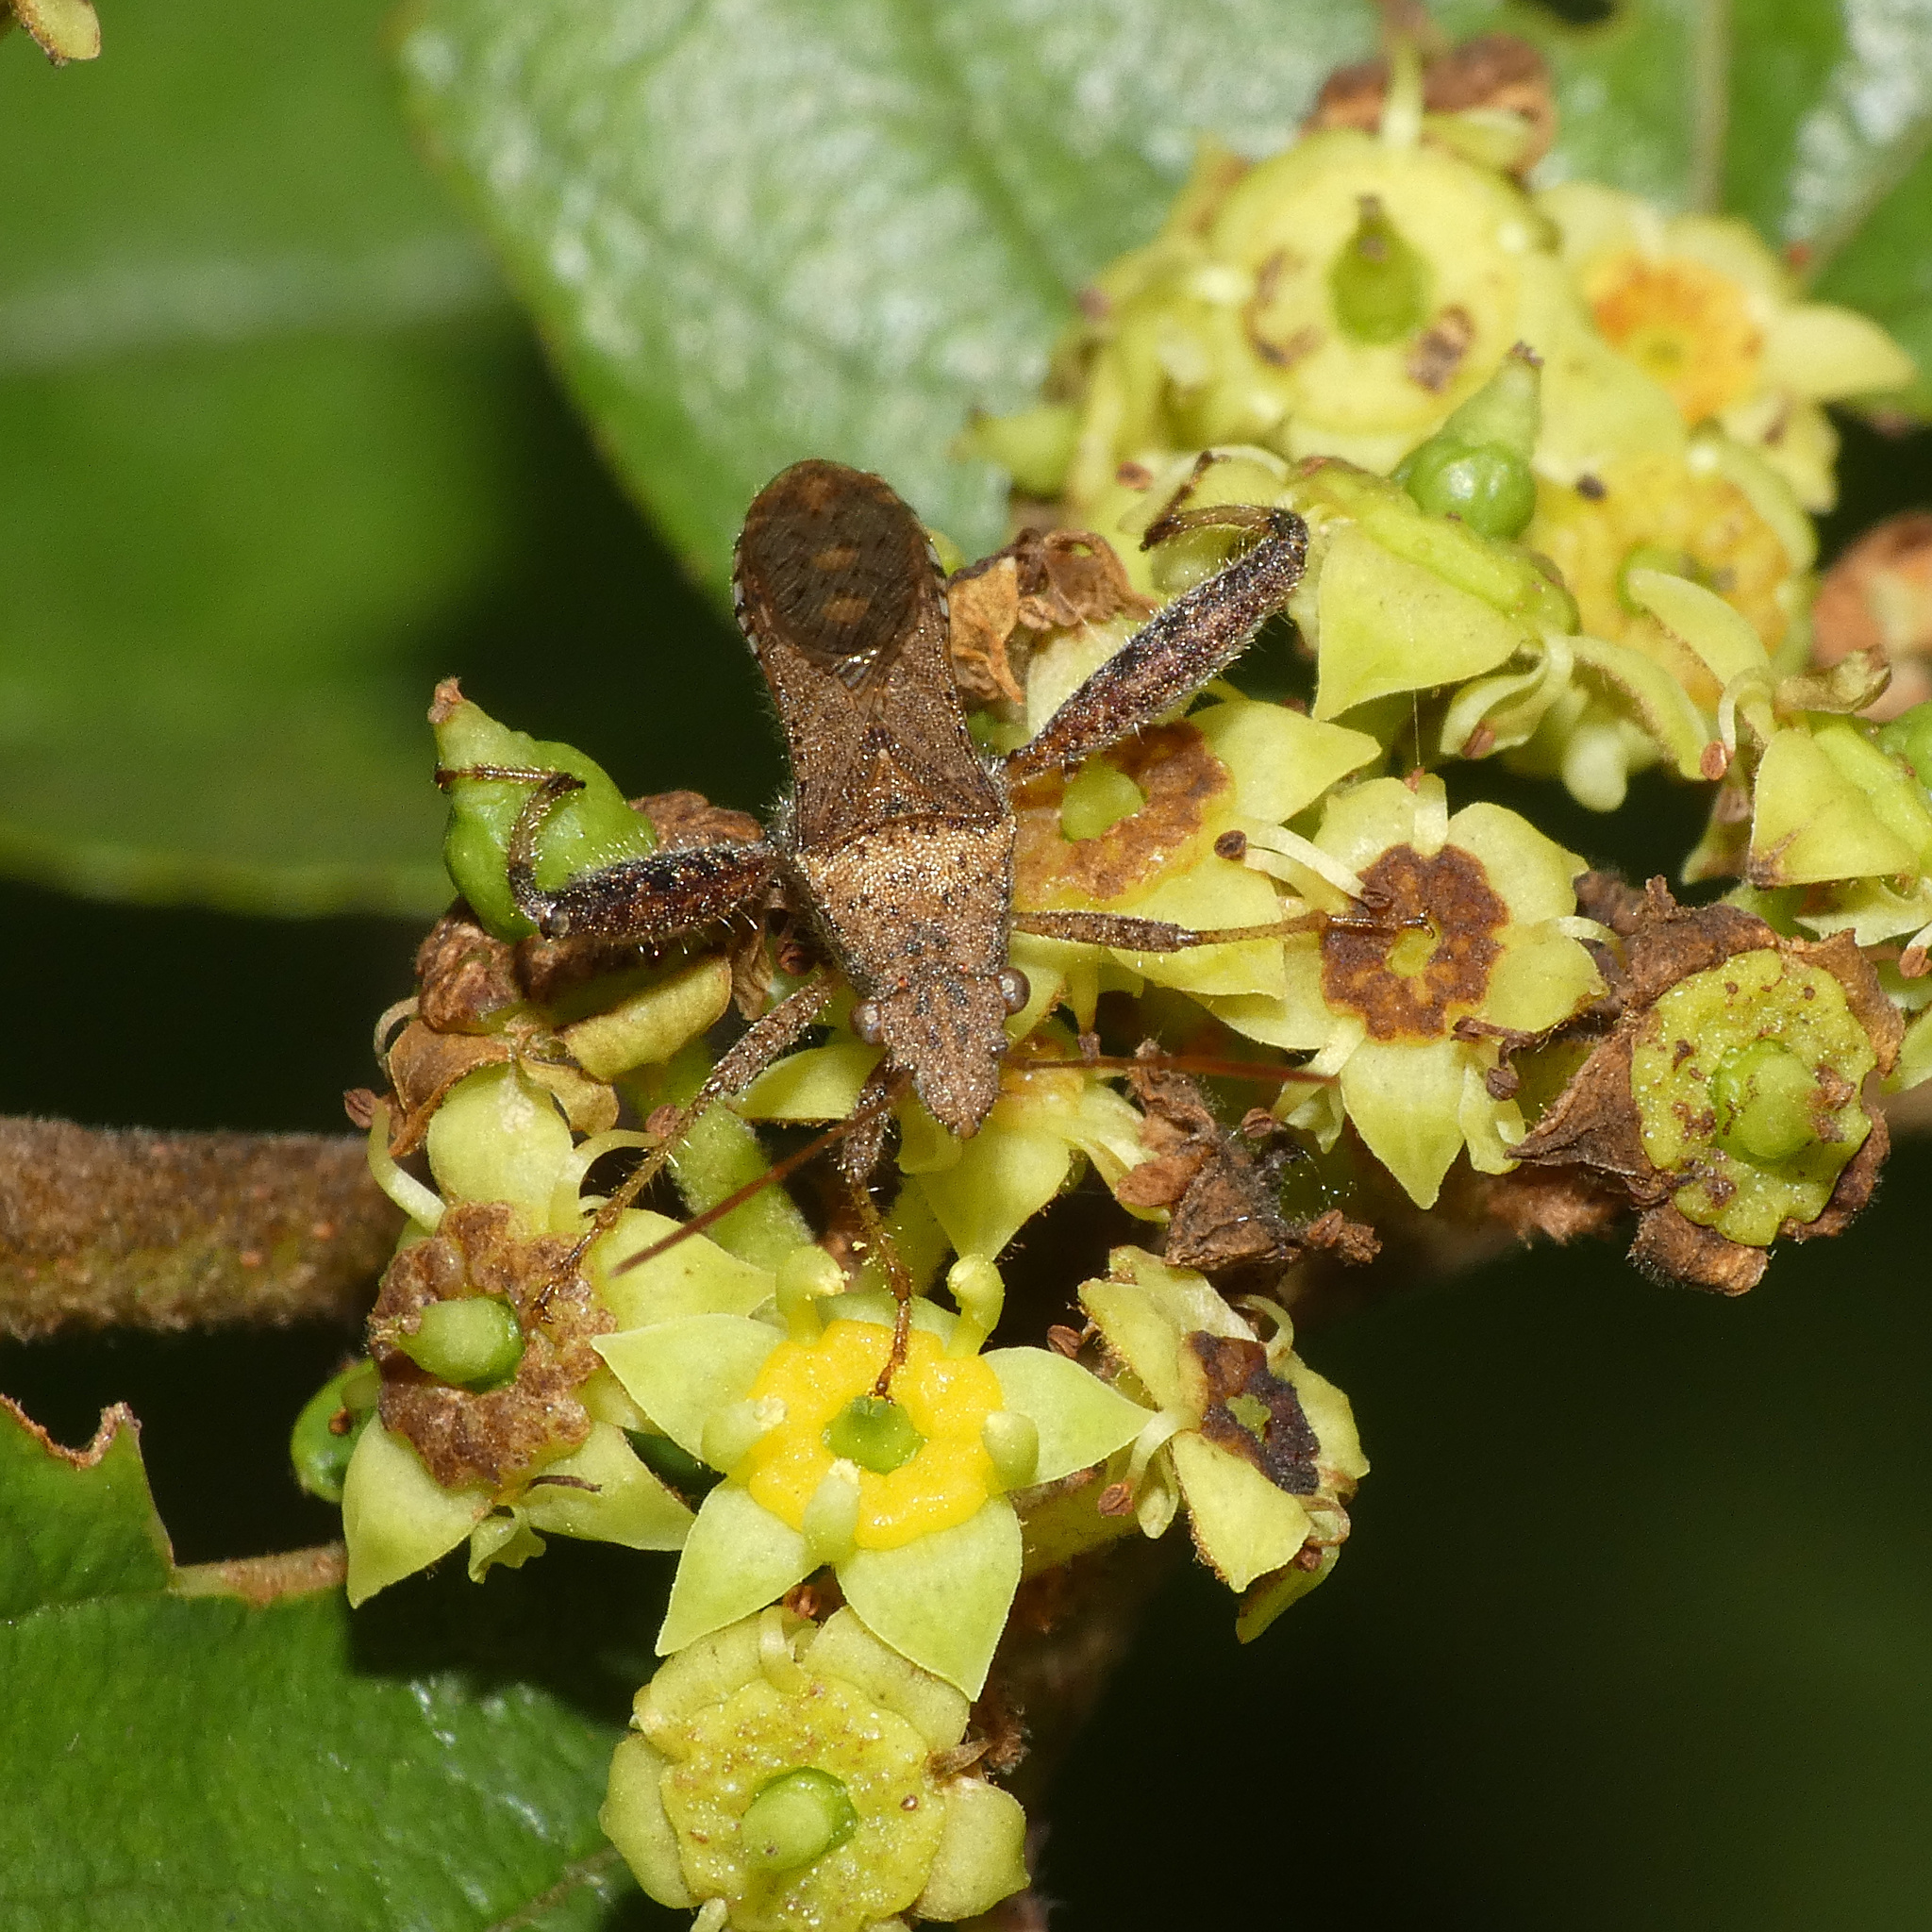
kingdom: Animalia
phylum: Arthropoda
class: Insecta
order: Hemiptera
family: Alydidae
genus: Heegeria
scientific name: Heegeria tangirica
